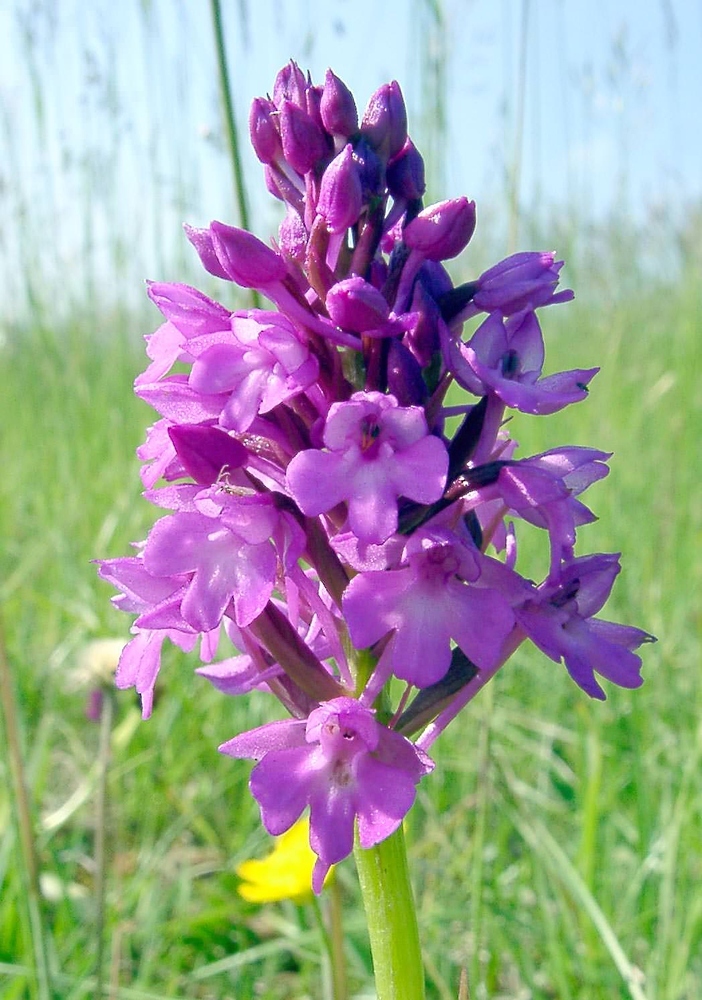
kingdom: Plantae
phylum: Tracheophyta
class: Liliopsida
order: Asparagales
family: Orchidaceae
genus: Anacamptis
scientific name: Anacamptis pyramidalis
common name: Pyramidal orchid
